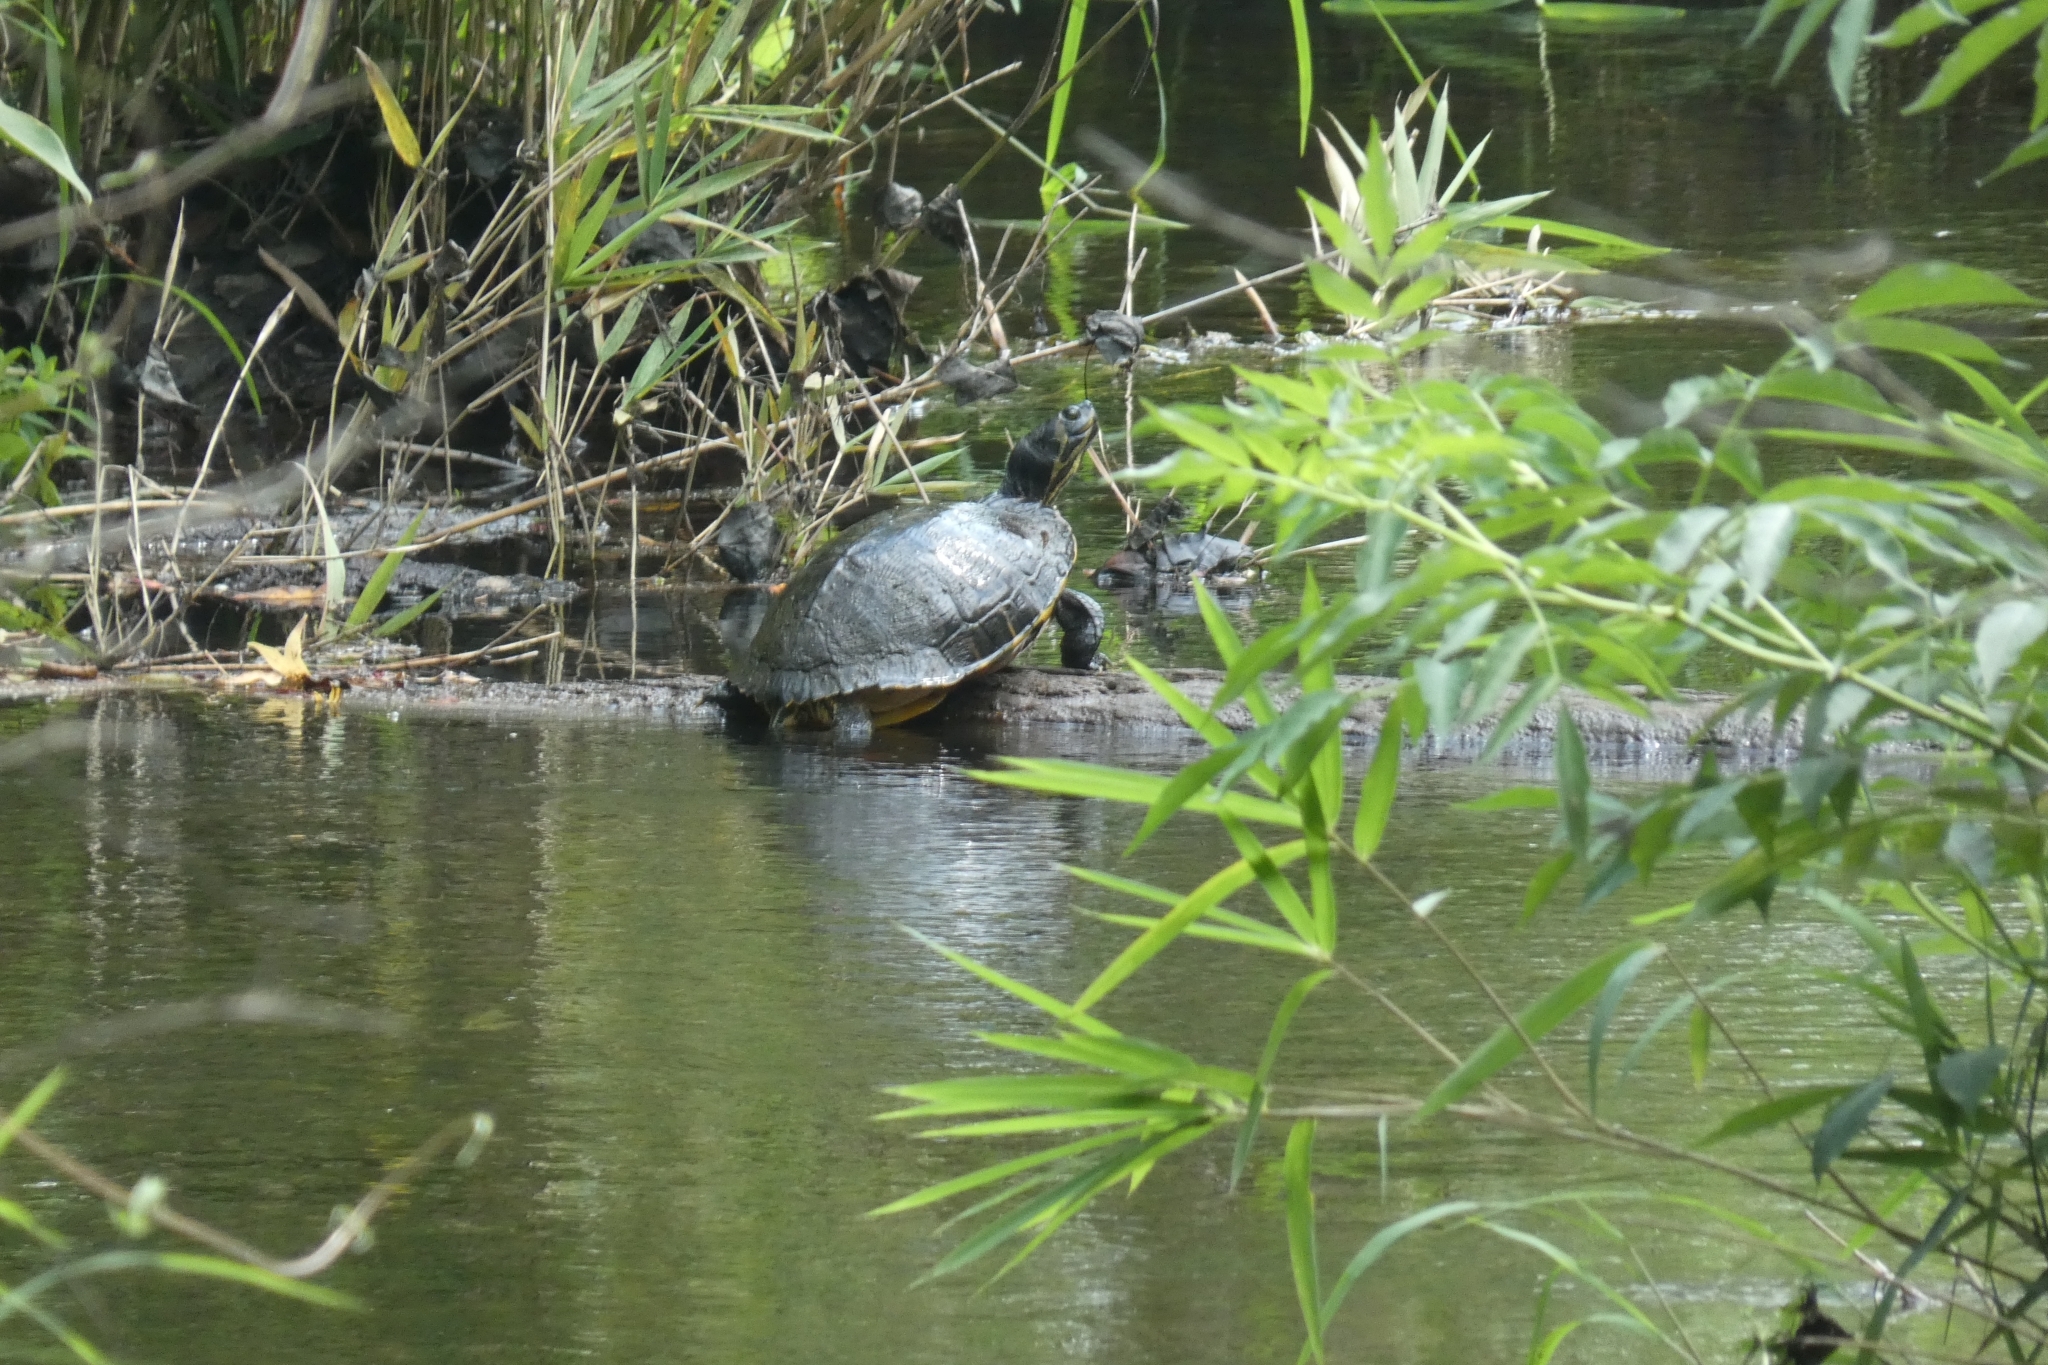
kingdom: Animalia
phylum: Chordata
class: Testudines
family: Emydidae
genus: Trachemys
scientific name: Trachemys scripta
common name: Slider
